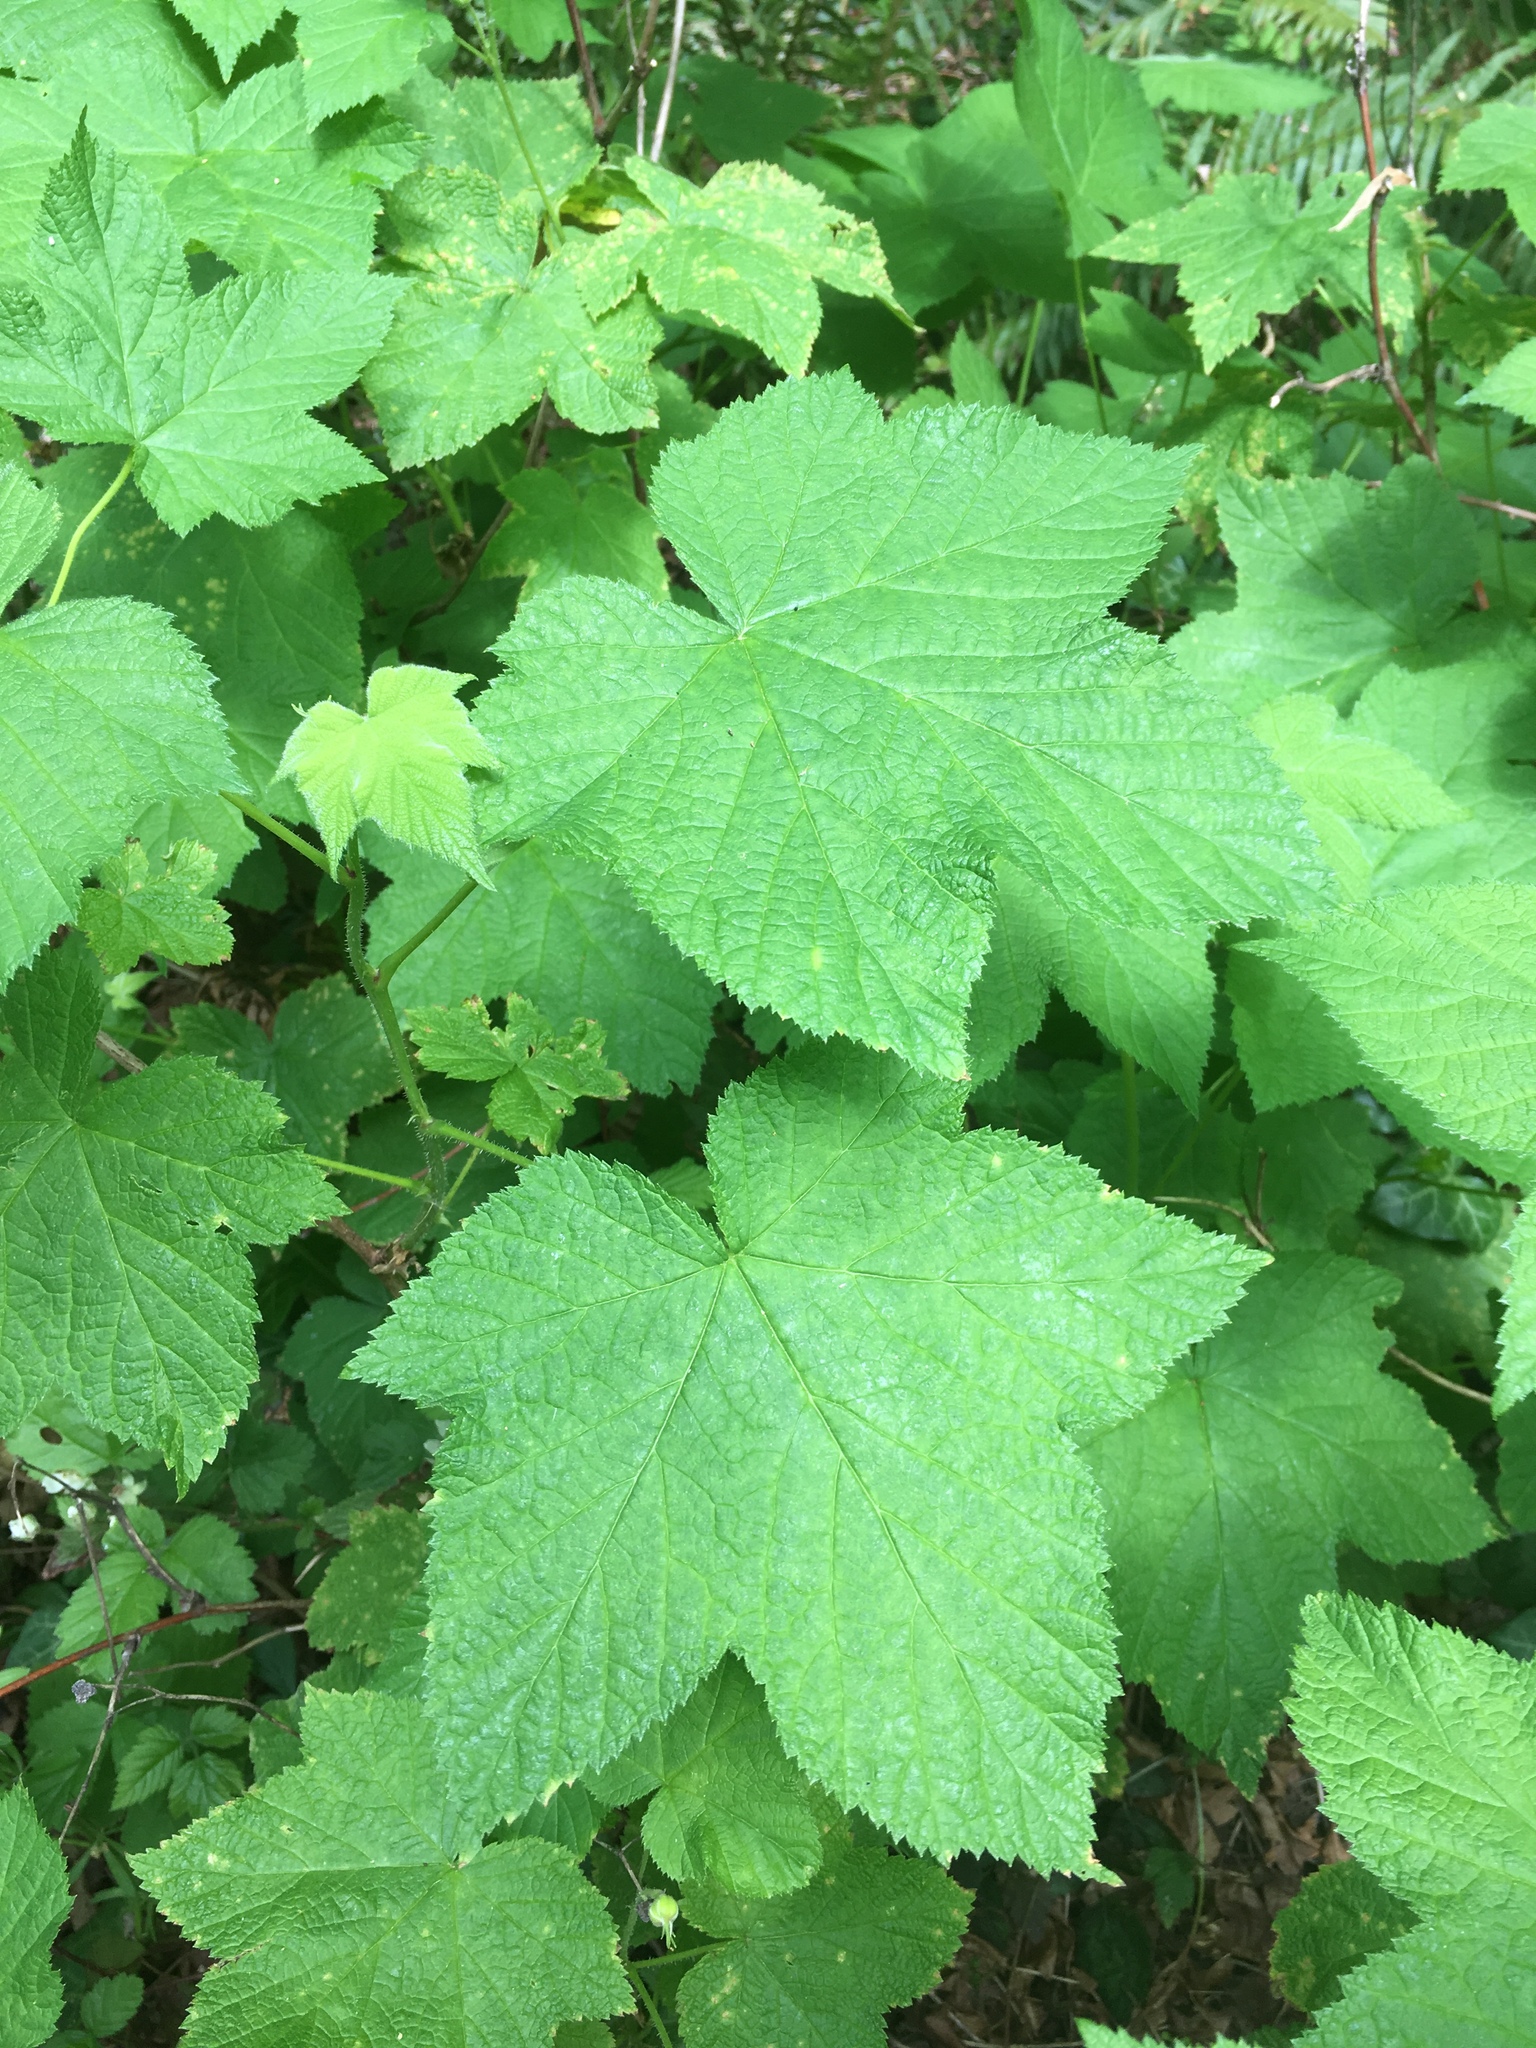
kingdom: Plantae
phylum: Tracheophyta
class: Magnoliopsida
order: Rosales
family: Rosaceae
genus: Rubus
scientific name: Rubus parviflorus
